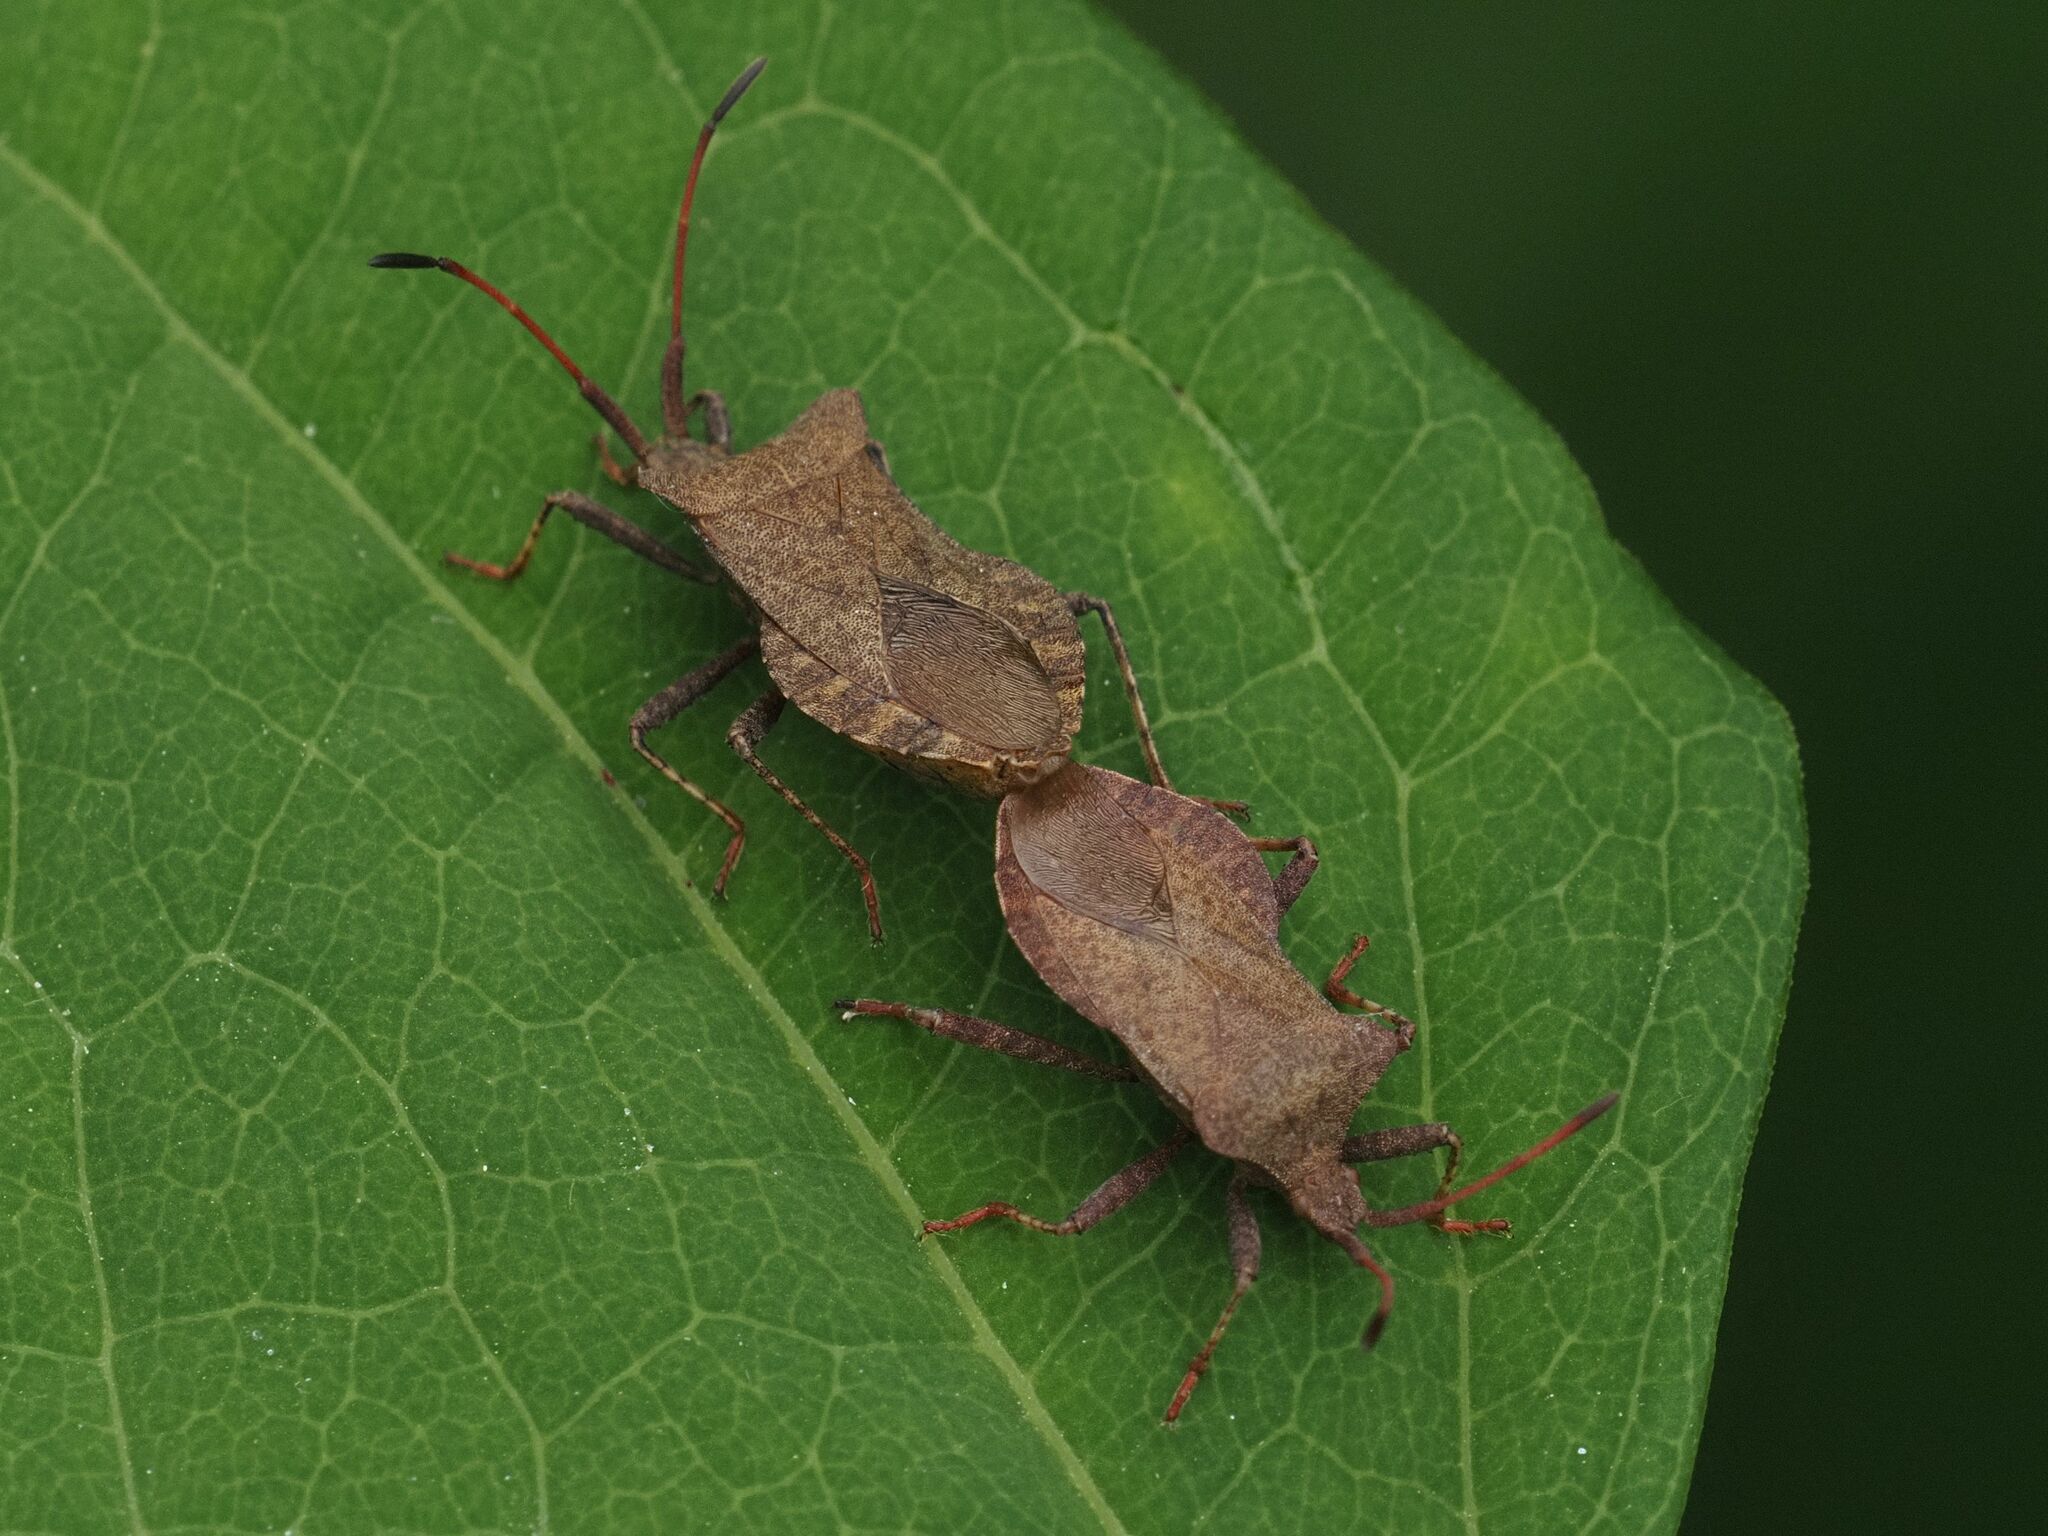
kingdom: Animalia
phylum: Arthropoda
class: Insecta
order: Hemiptera
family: Coreidae
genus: Coreus
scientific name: Coreus marginatus
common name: Dock bug
